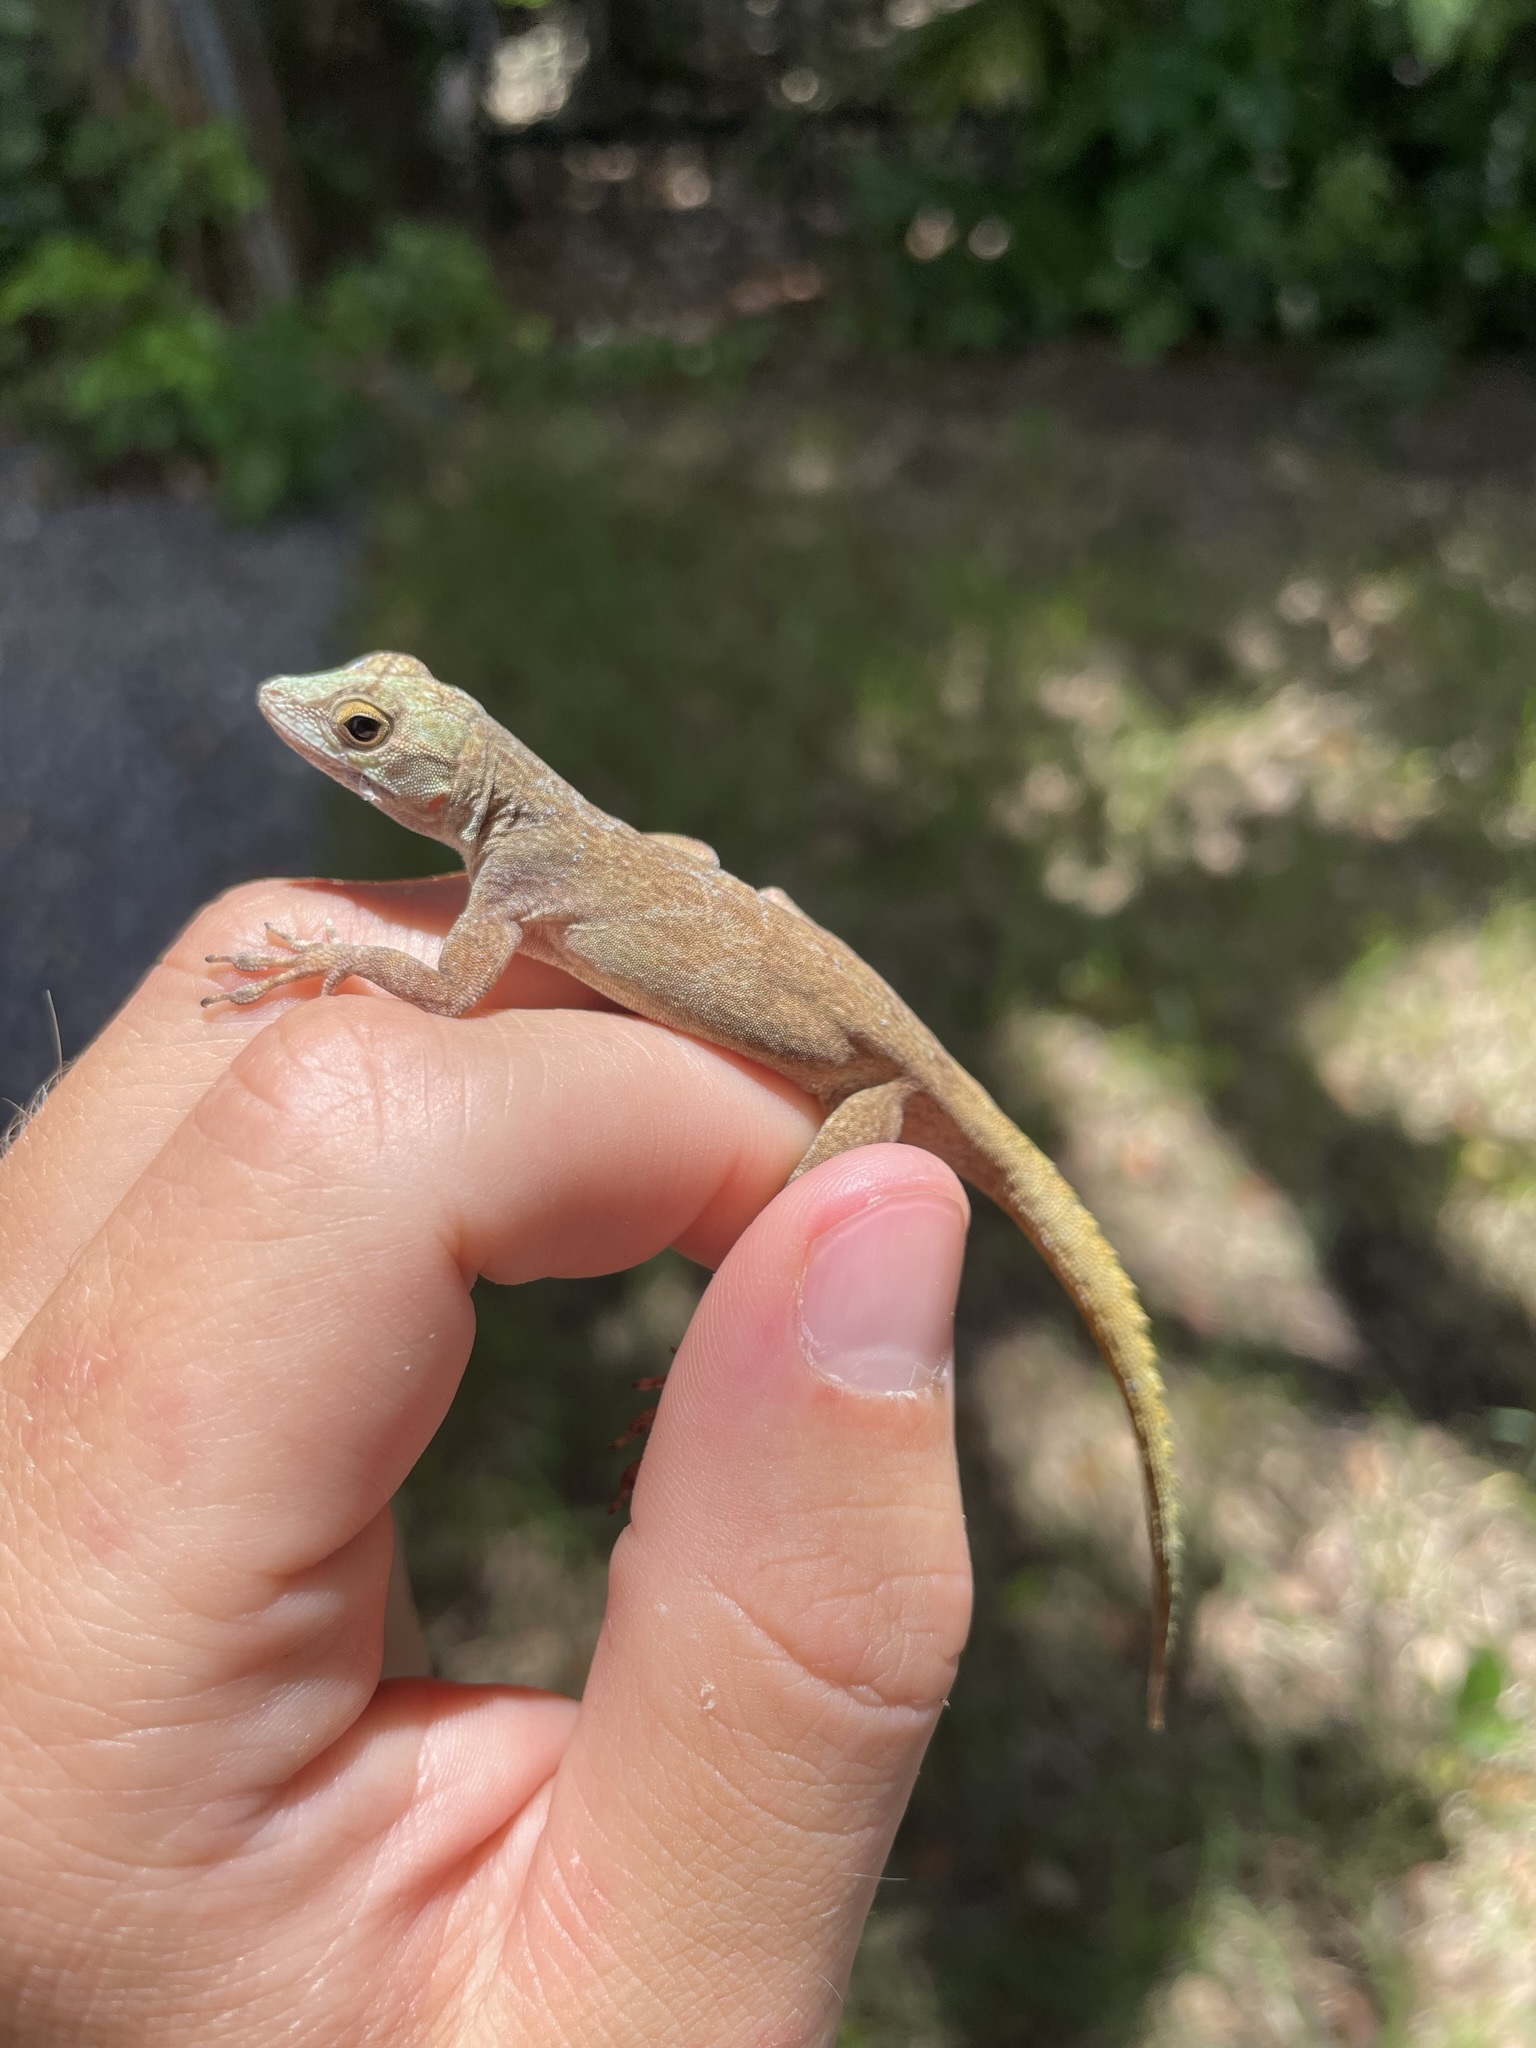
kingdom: Animalia
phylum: Chordata
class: Squamata
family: Dactyloidae
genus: Anolis
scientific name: Anolis distichus
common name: Bark anole
